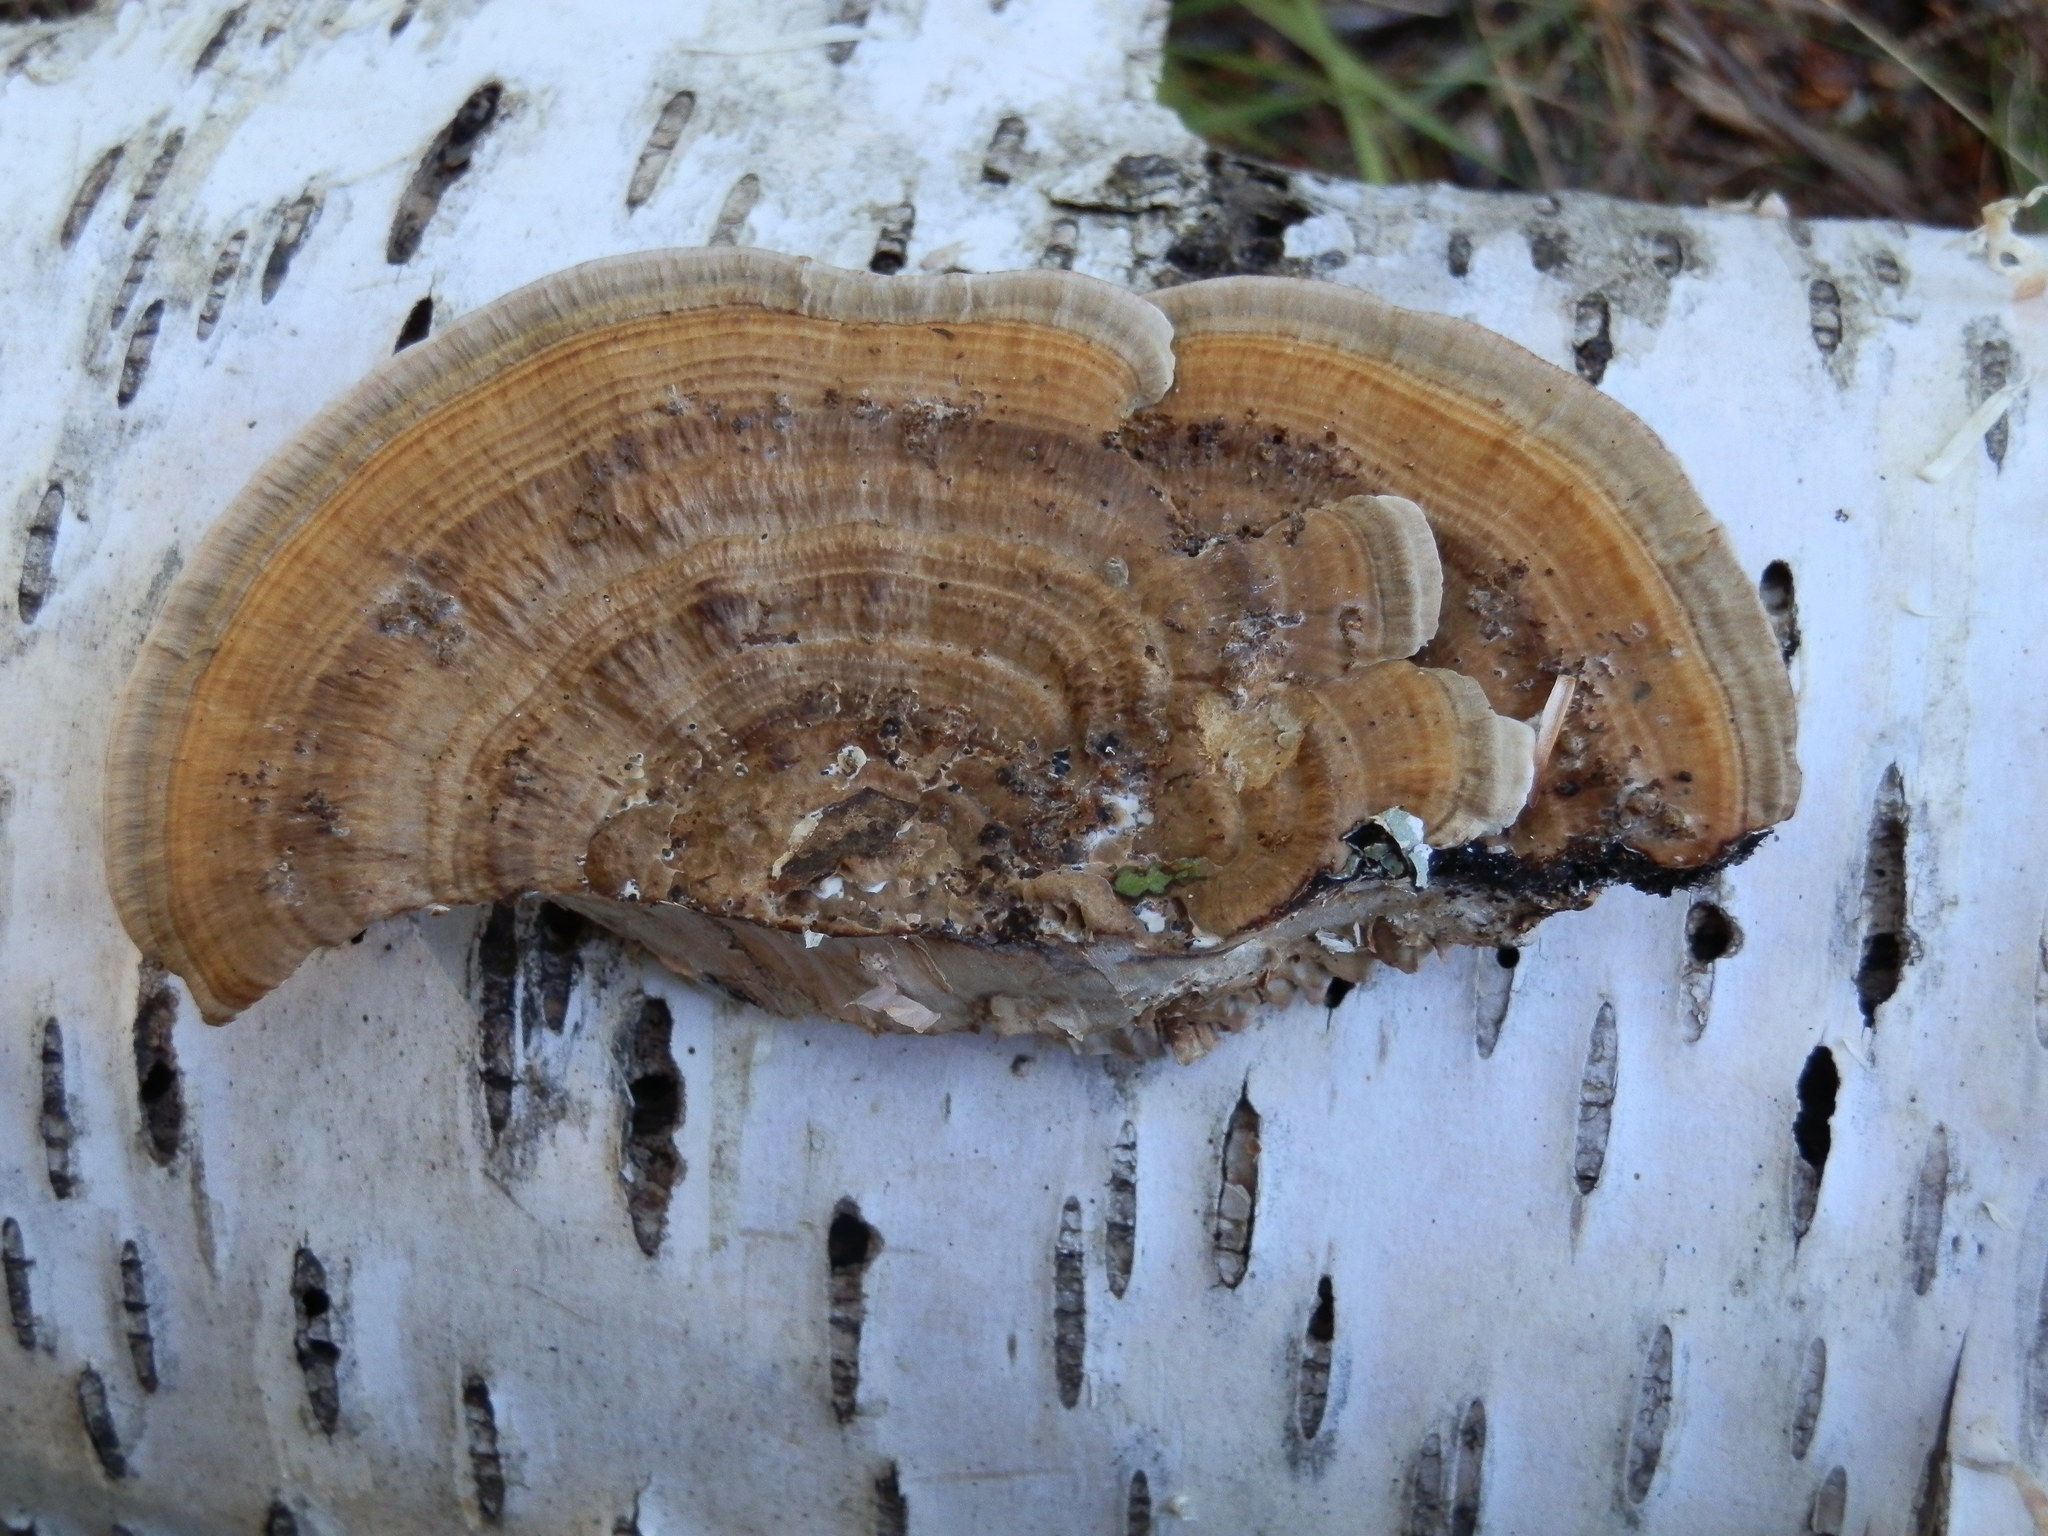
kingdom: Fungi
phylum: Basidiomycota
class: Agaricomycetes
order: Polyporales
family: Polyporaceae
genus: Daedaleopsis
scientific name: Daedaleopsis confragosa
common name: Blushing bracket
